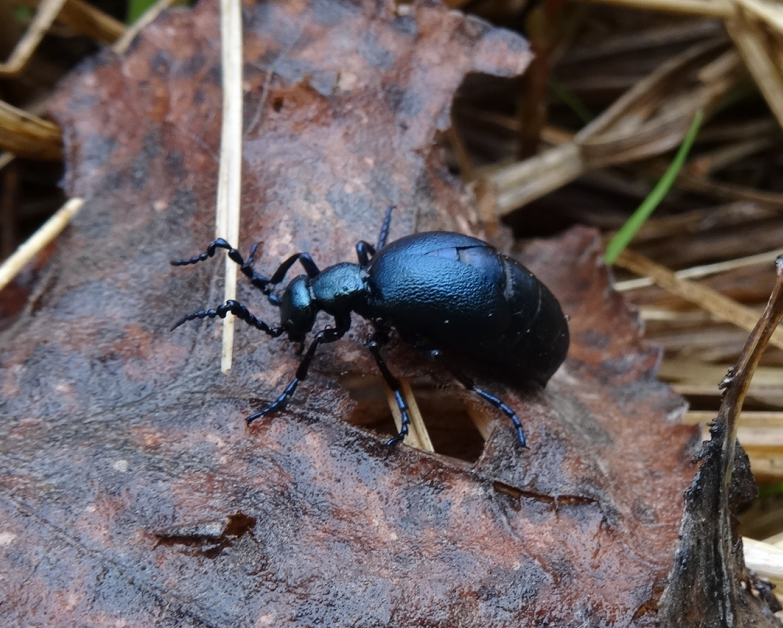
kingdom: Animalia
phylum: Arthropoda
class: Insecta
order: Coleoptera
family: Meloidae
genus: Meloe
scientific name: Meloe violaceus
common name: Violet oil-beetle
